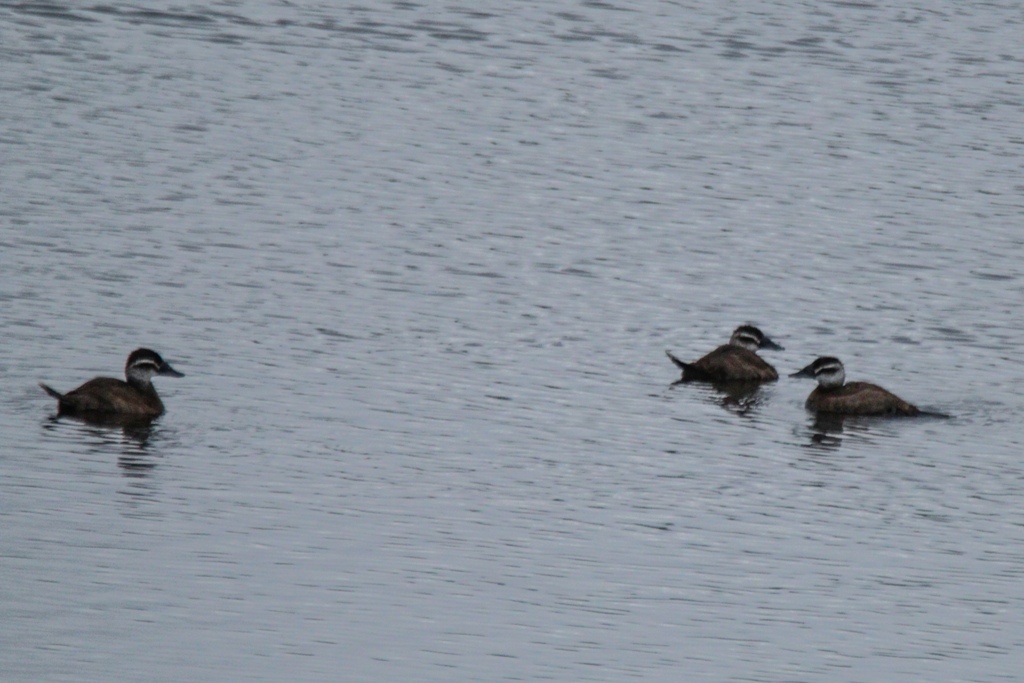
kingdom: Animalia
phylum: Chordata
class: Aves
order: Anseriformes
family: Anatidae
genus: Oxyura
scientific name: Oxyura leucocephala
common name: White-headed duck
